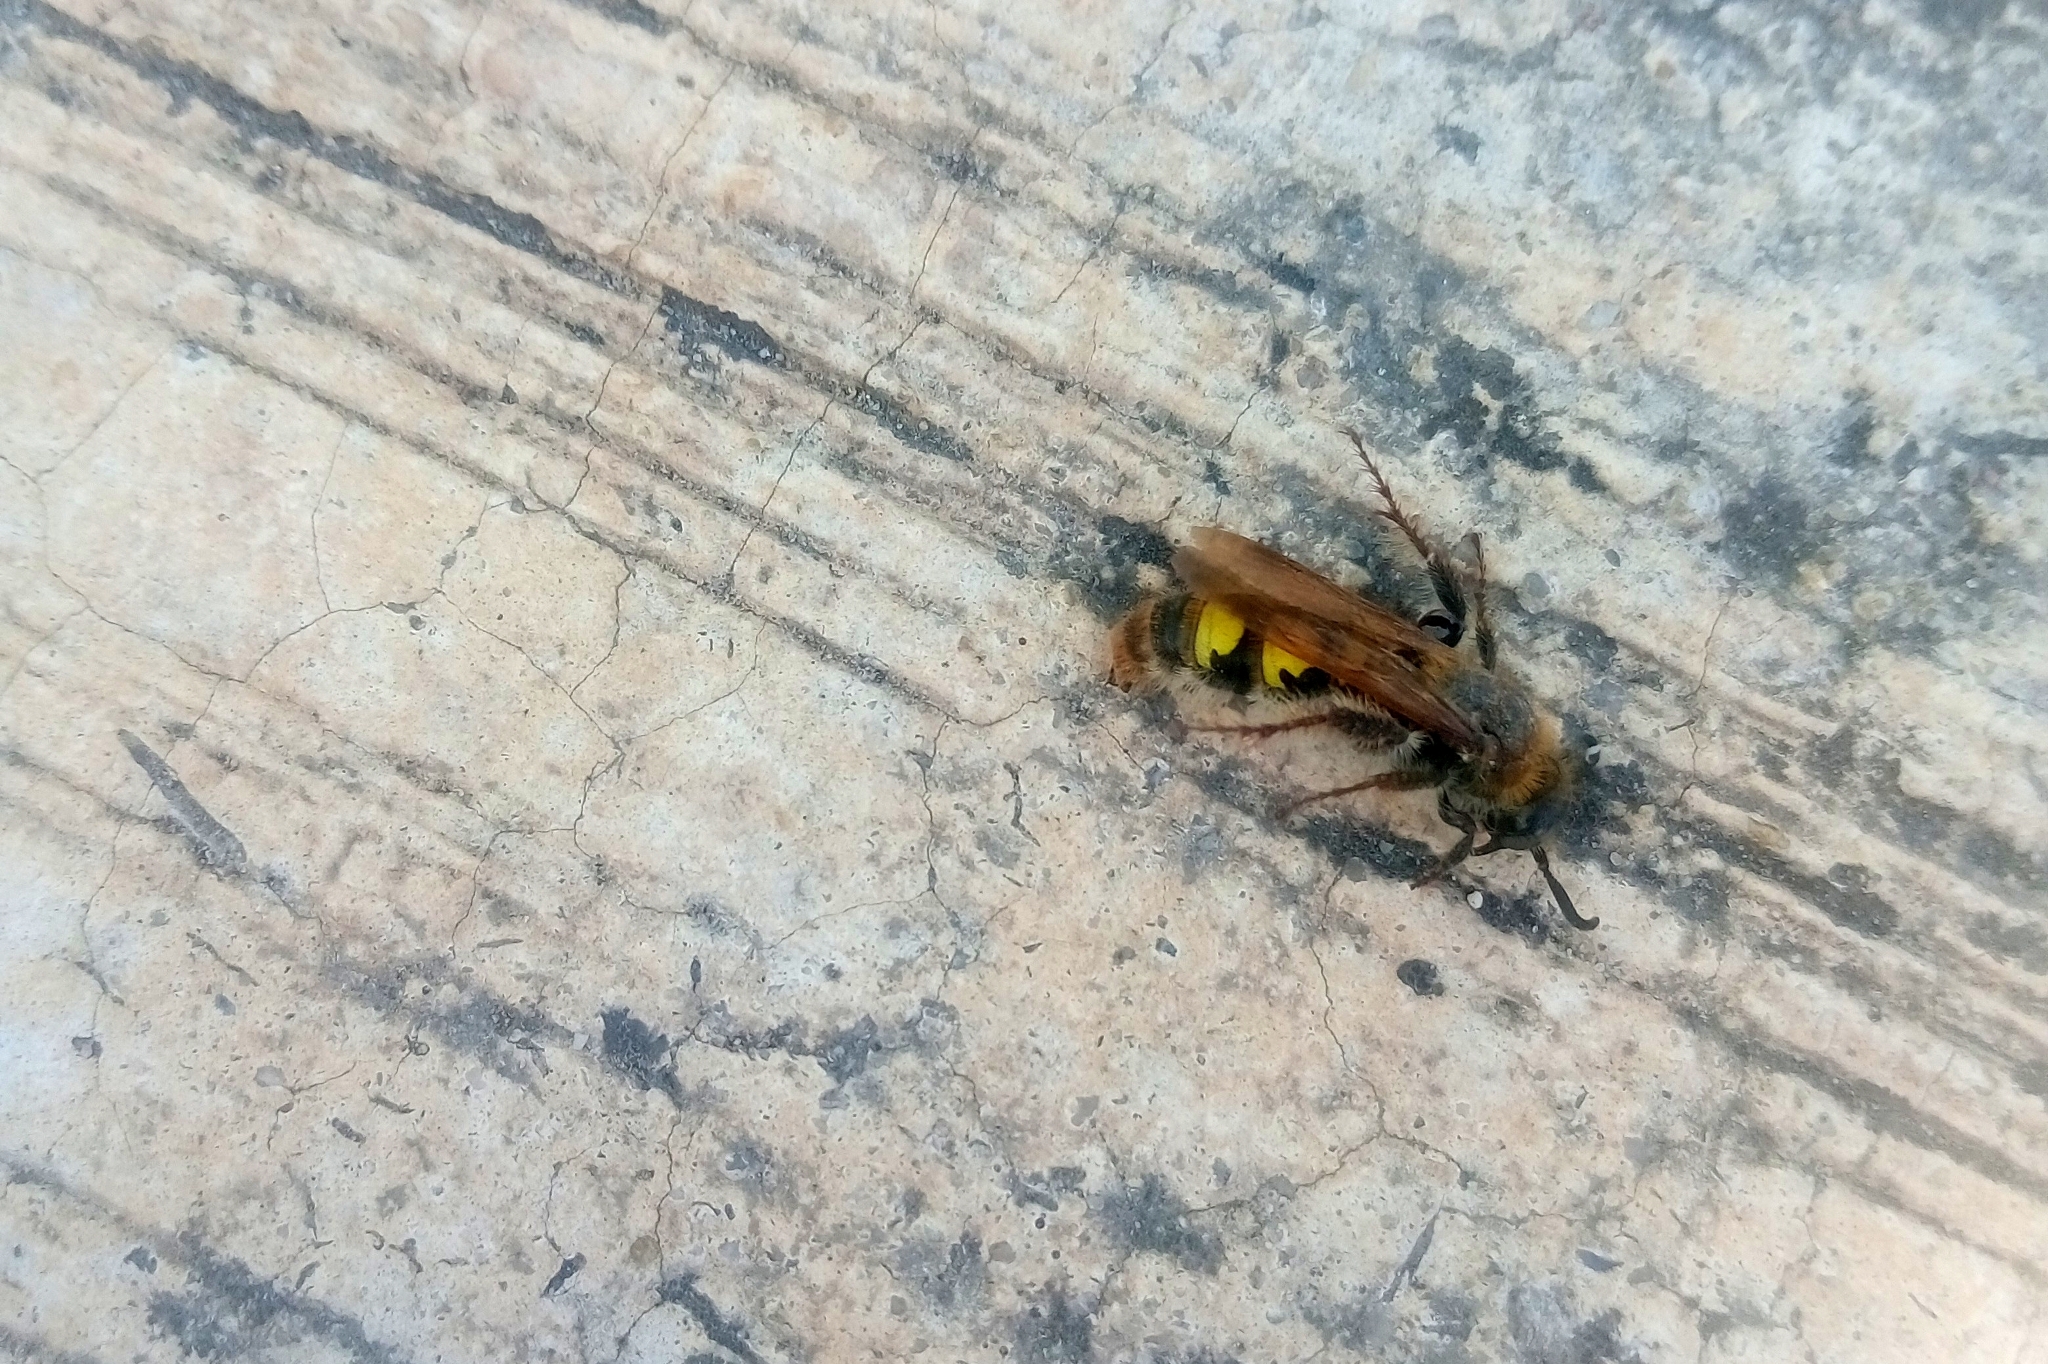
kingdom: Animalia
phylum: Arthropoda
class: Insecta
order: Hymenoptera
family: Scoliidae
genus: Xantocampsomeris
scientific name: Xantocampsomeris limosa
